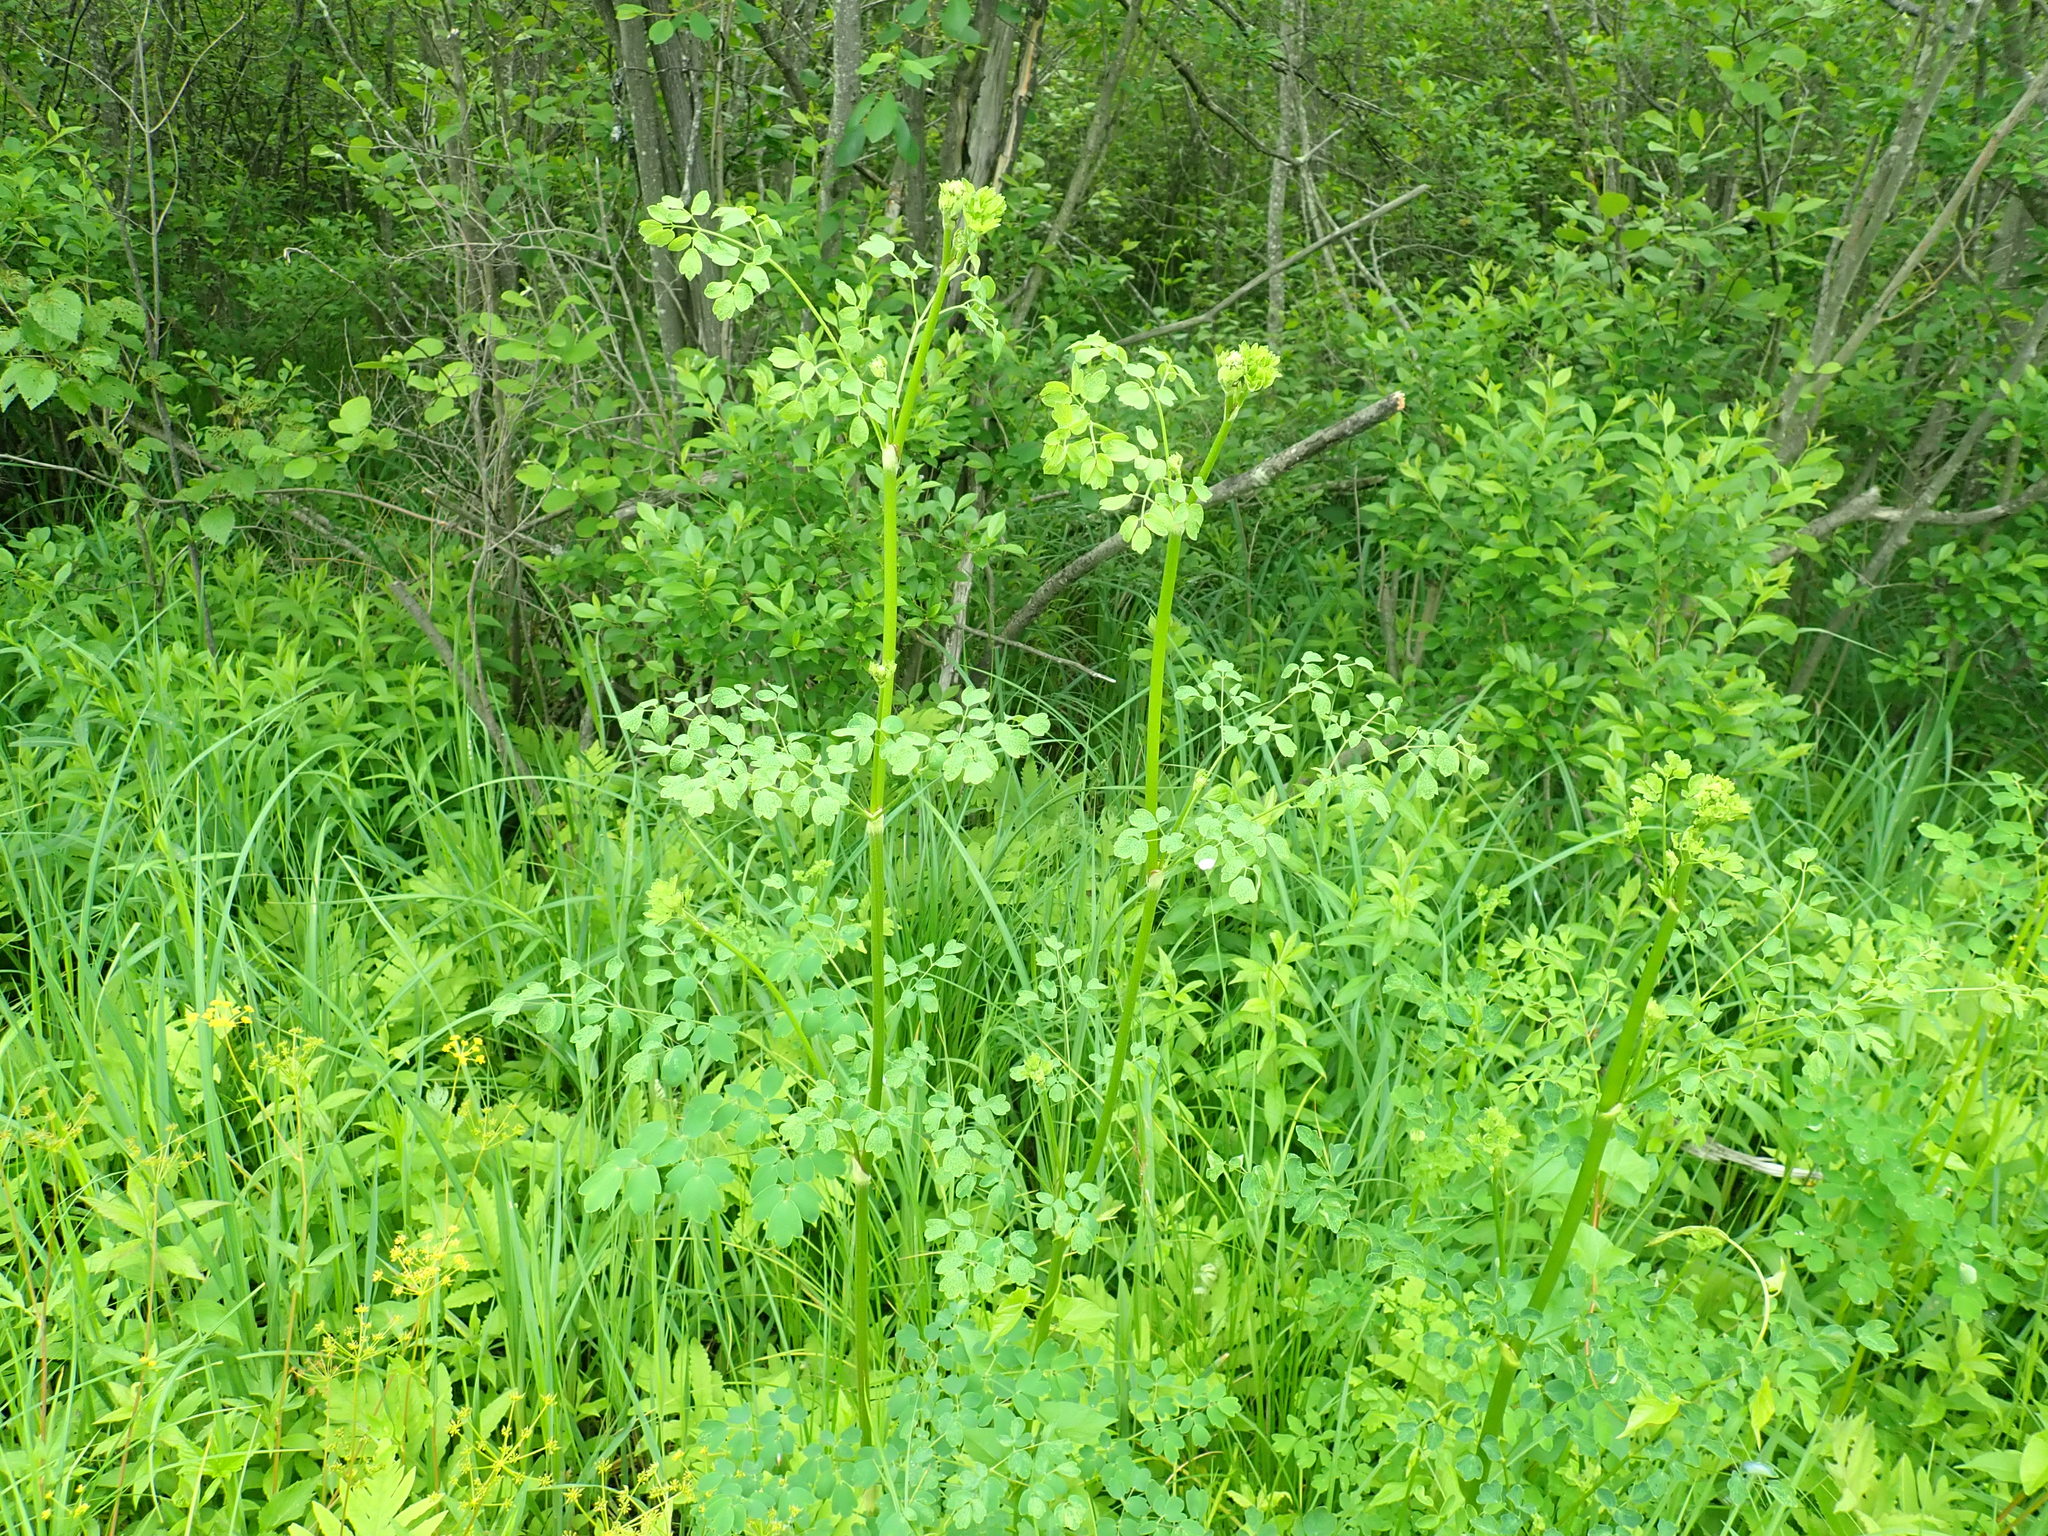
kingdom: Plantae
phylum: Tracheophyta
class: Magnoliopsida
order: Ranunculales
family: Ranunculaceae
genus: Thalictrum
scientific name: Thalictrum pubescens
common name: King-of-the-meadow
